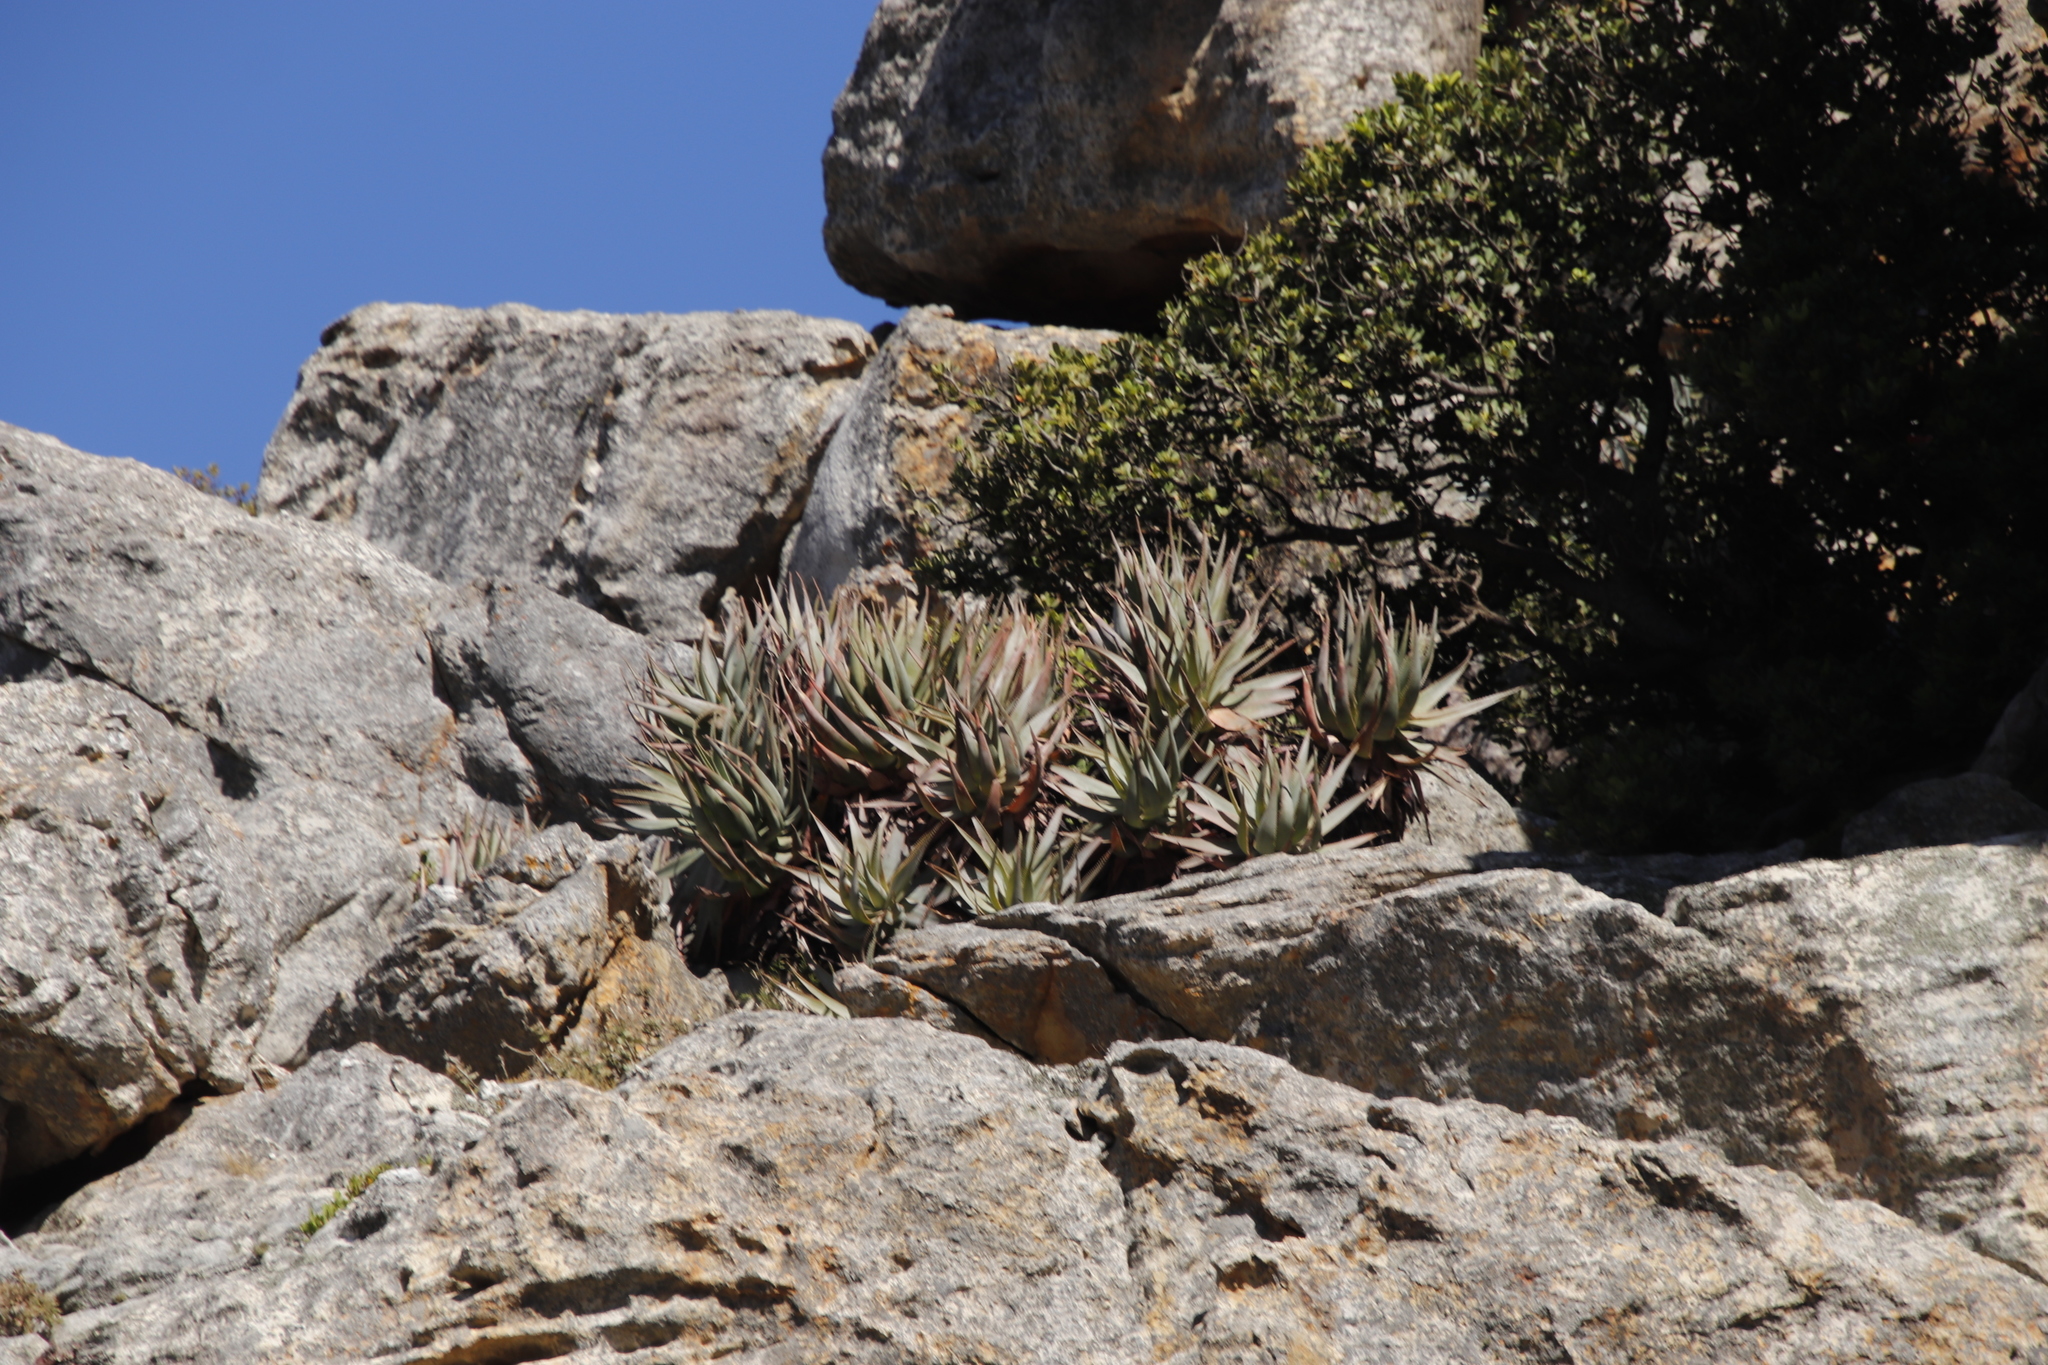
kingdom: Plantae
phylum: Tracheophyta
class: Liliopsida
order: Asparagales
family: Asphodelaceae
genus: Aloe
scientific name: Aloe succotrina
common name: Bombay aloe
